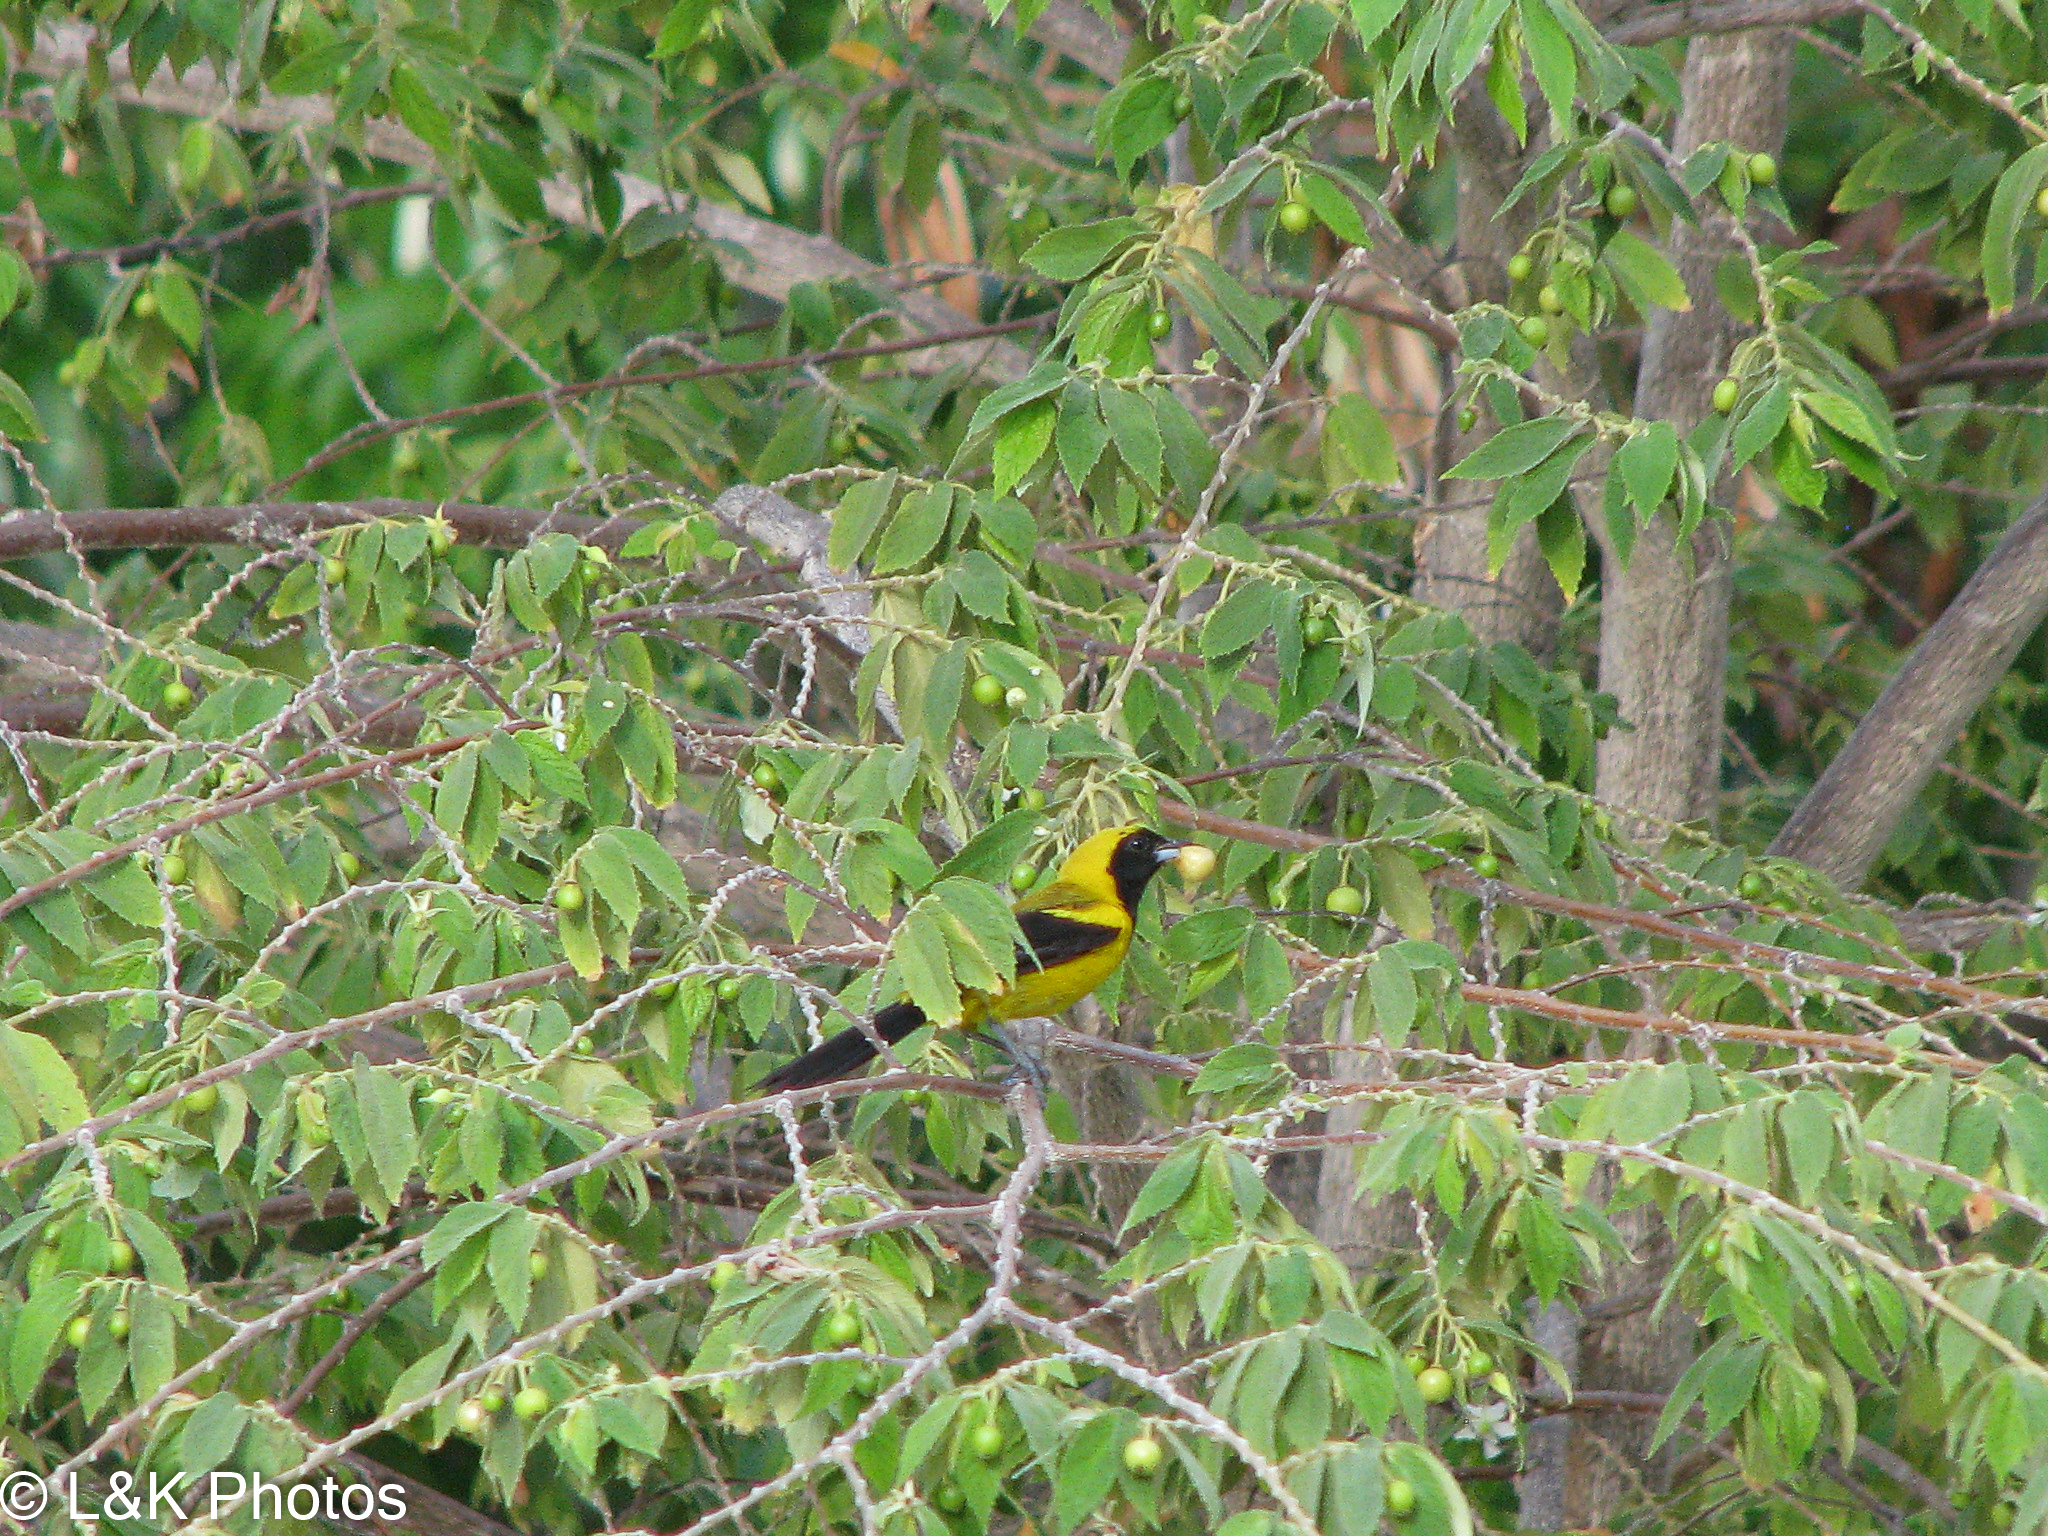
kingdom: Animalia
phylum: Chordata
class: Aves
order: Passeriformes
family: Icteridae
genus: Icterus
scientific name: Icterus prosthemelas
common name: Black-cowled oriole
